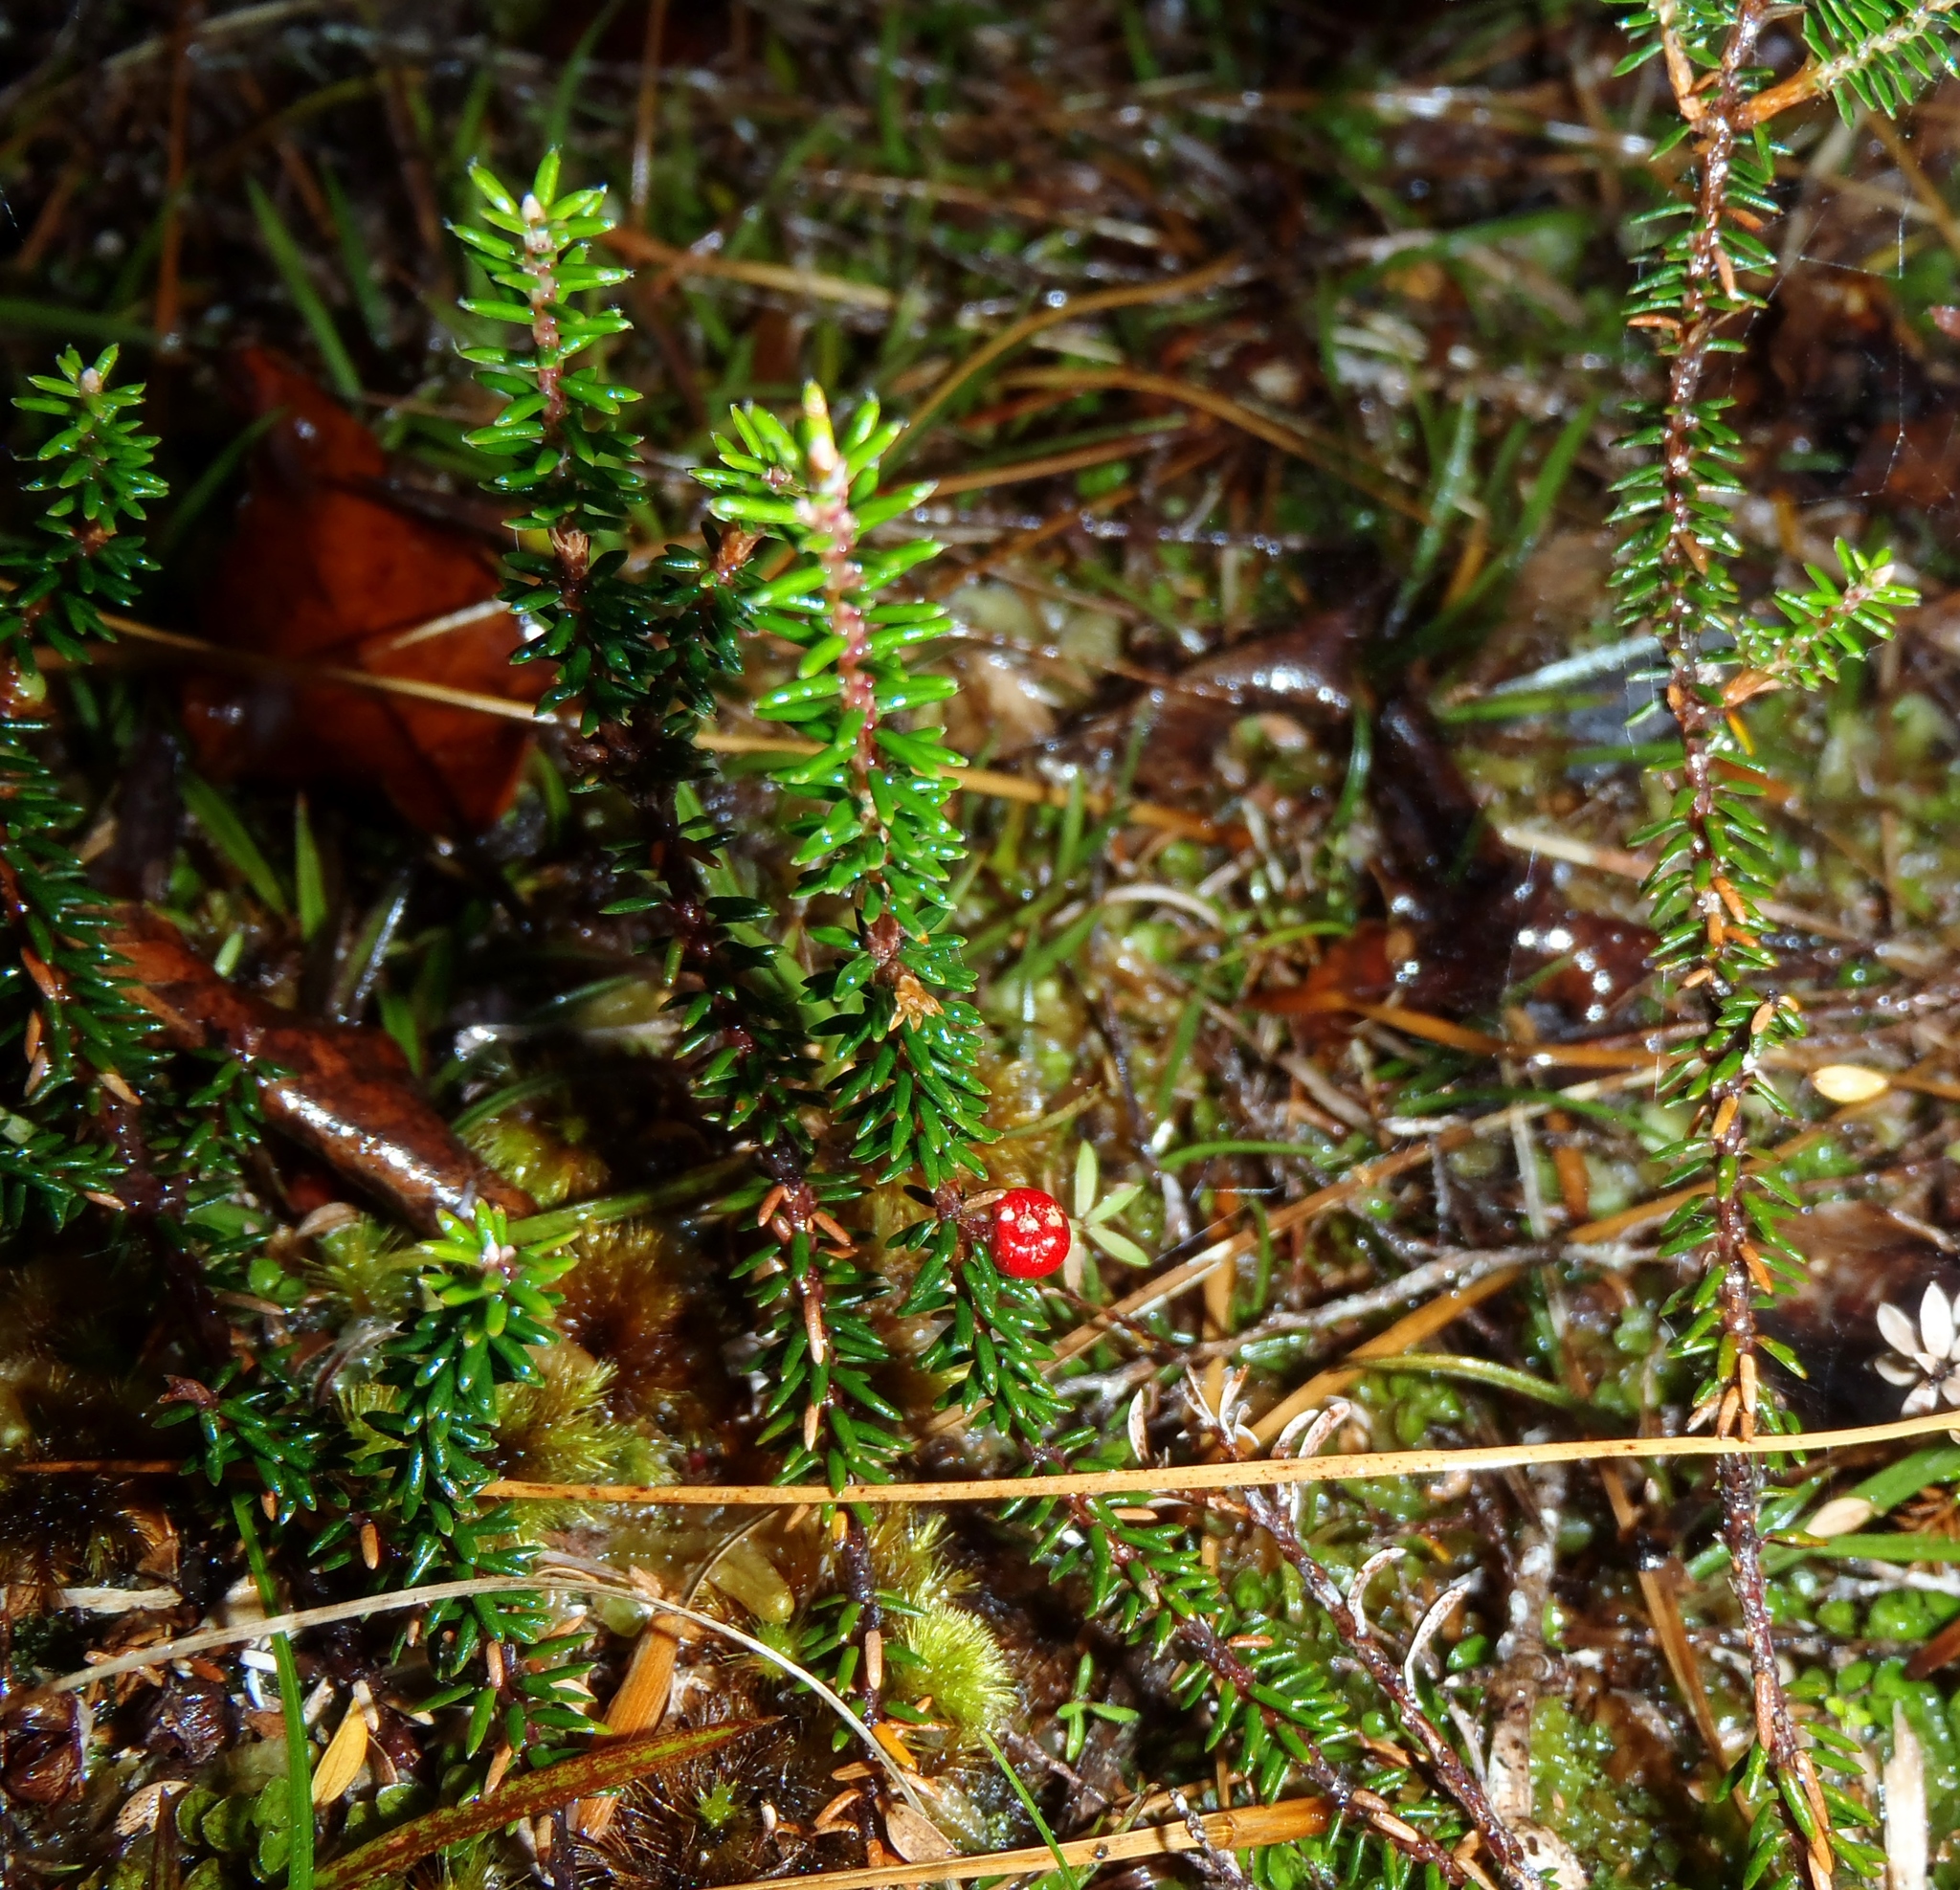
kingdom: Plantae
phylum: Tracheophyta
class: Magnoliopsida
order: Ericales
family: Ericaceae
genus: Androstoma
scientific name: Androstoma empetrifolia
